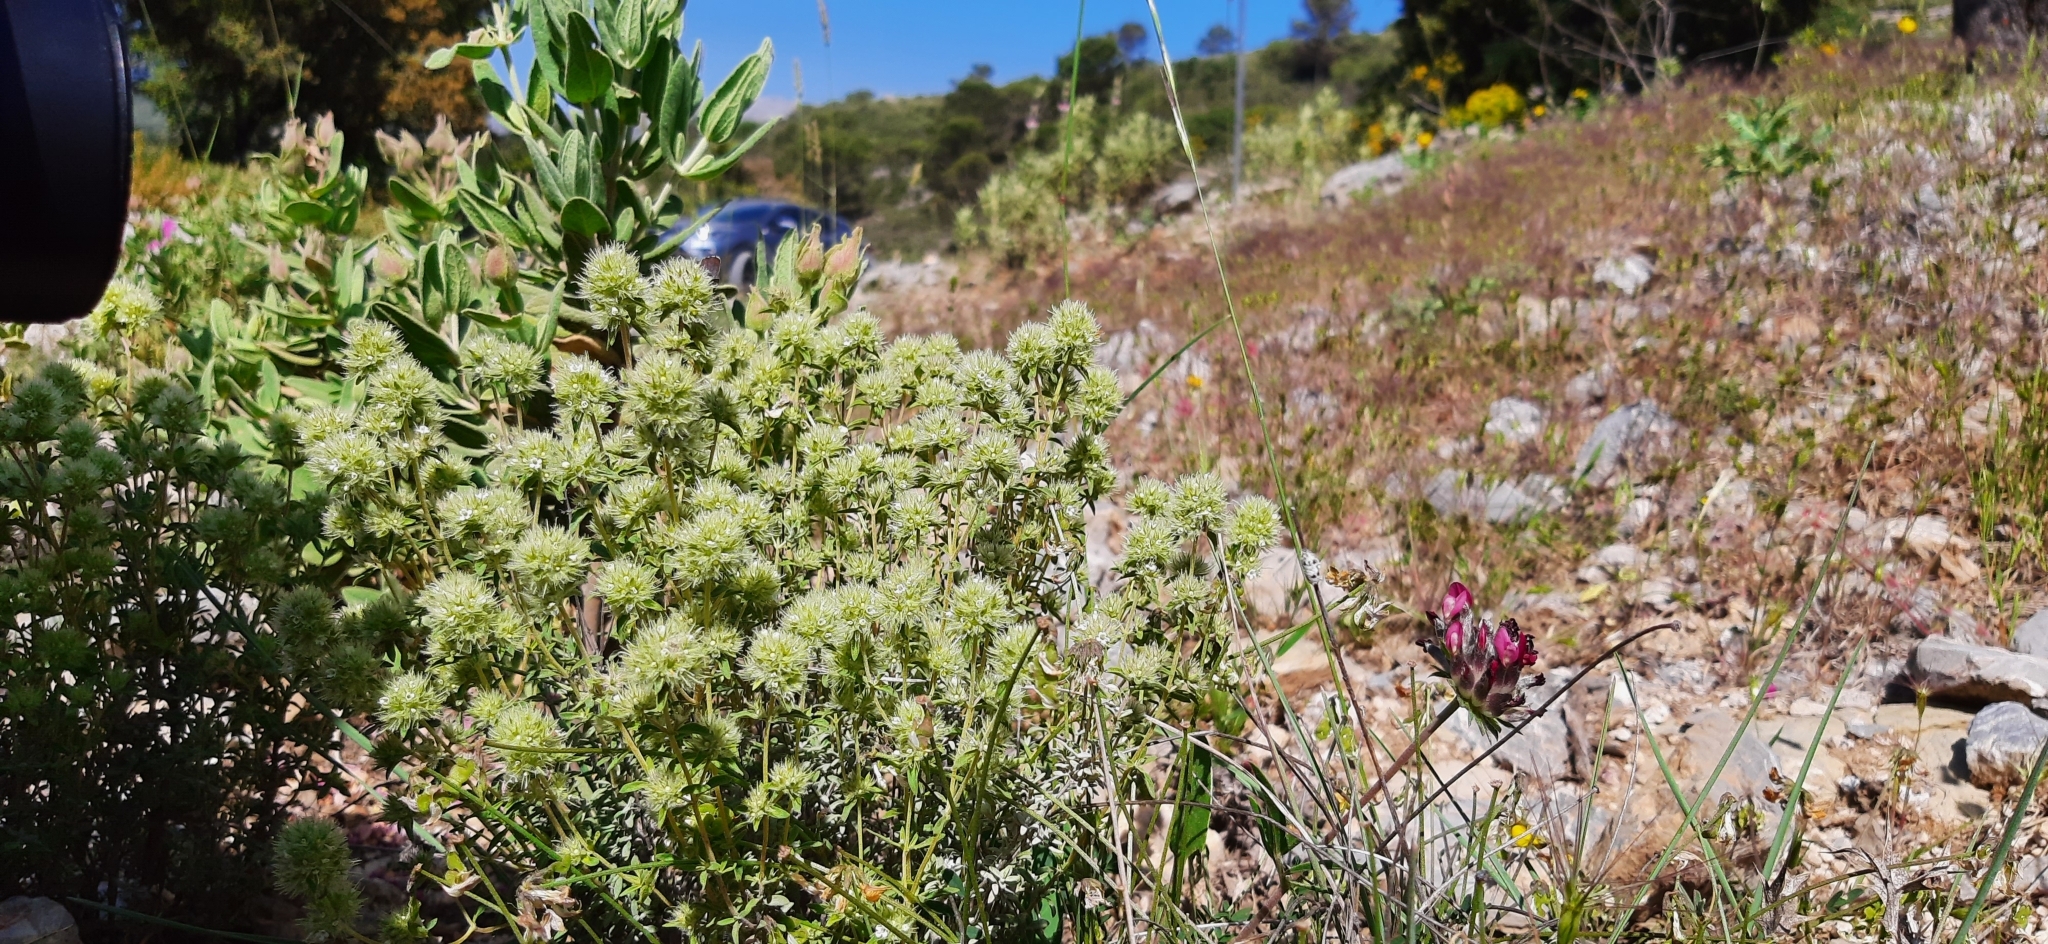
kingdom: Plantae
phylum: Tracheophyta
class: Magnoliopsida
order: Lamiales
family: Lamiaceae
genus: Thymus
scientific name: Thymus mastichina
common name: Mastic thyme
